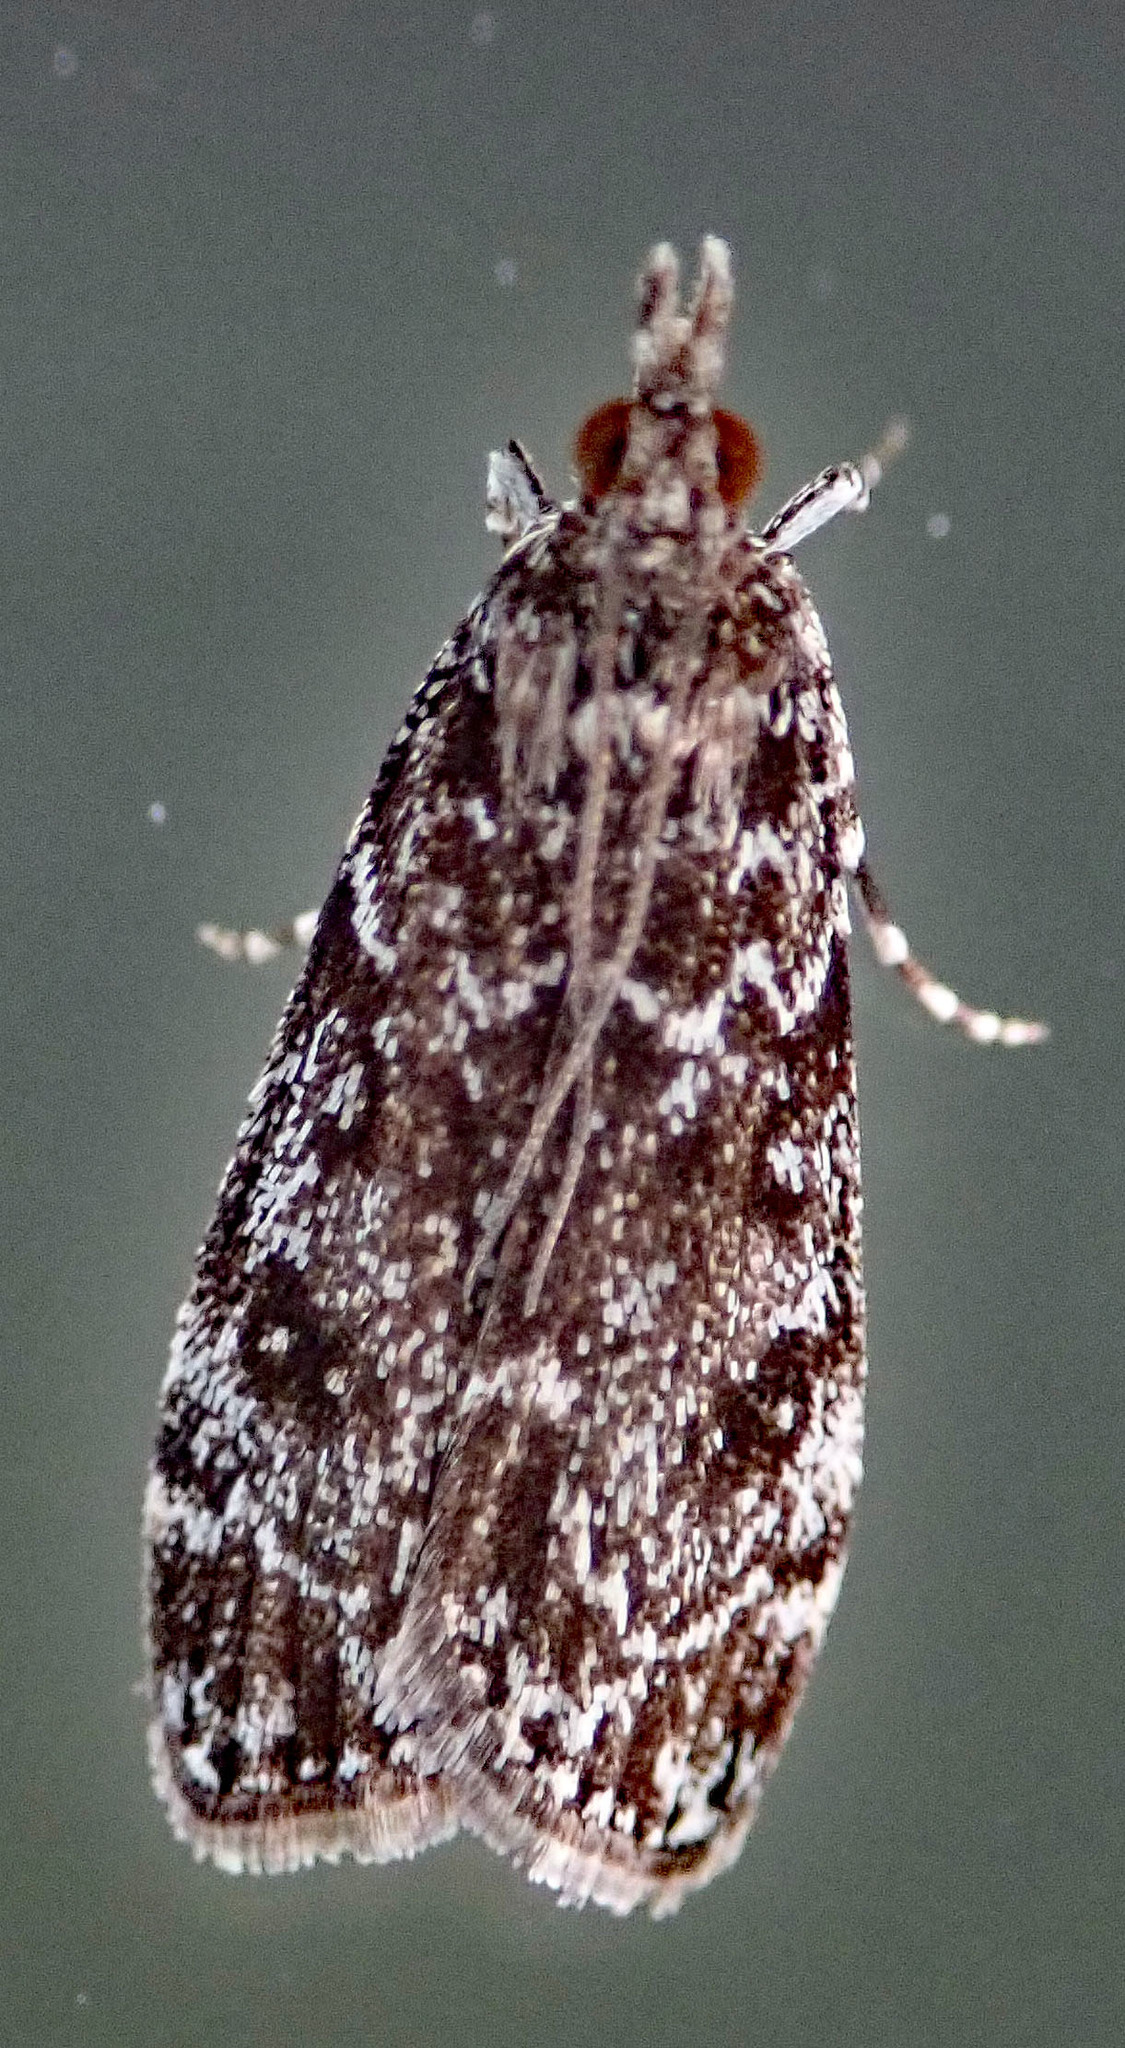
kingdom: Animalia
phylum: Arthropoda
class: Insecta
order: Lepidoptera
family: Crambidae
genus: Eudonia
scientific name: Eudonia philerga
